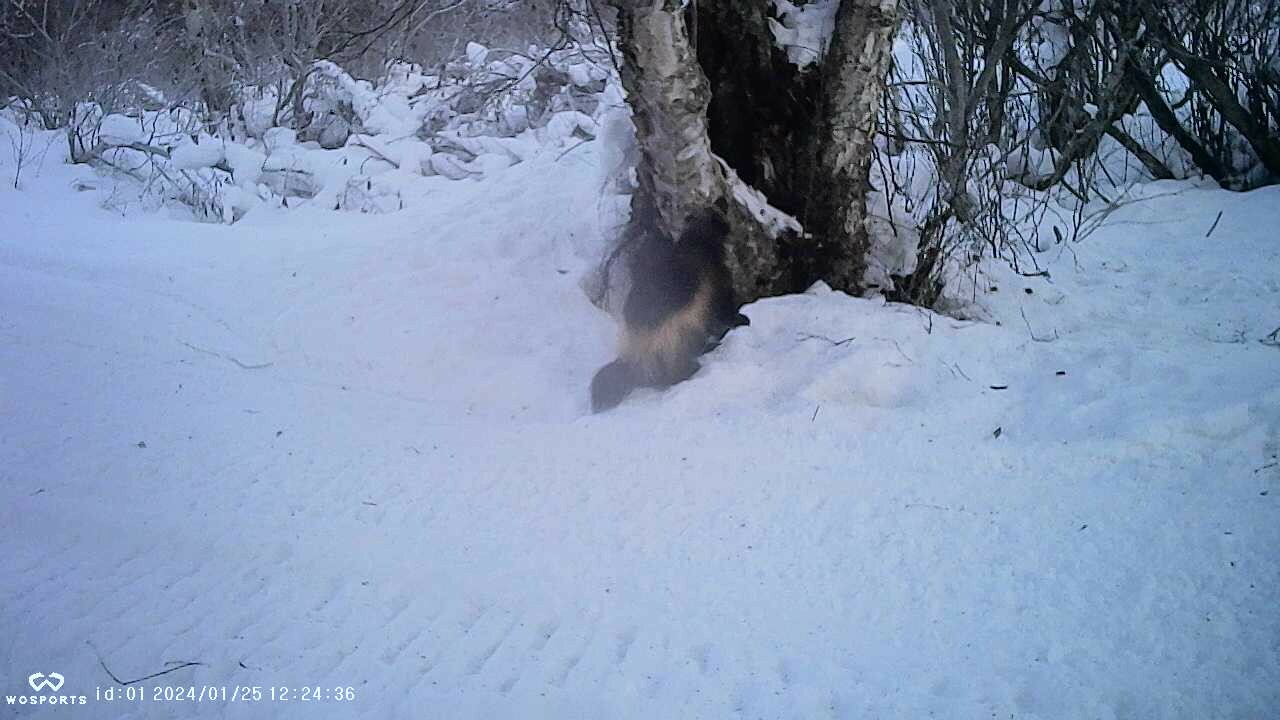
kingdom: Animalia
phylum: Chordata
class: Mammalia
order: Carnivora
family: Mustelidae
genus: Gulo
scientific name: Gulo gulo
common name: Wolverine
